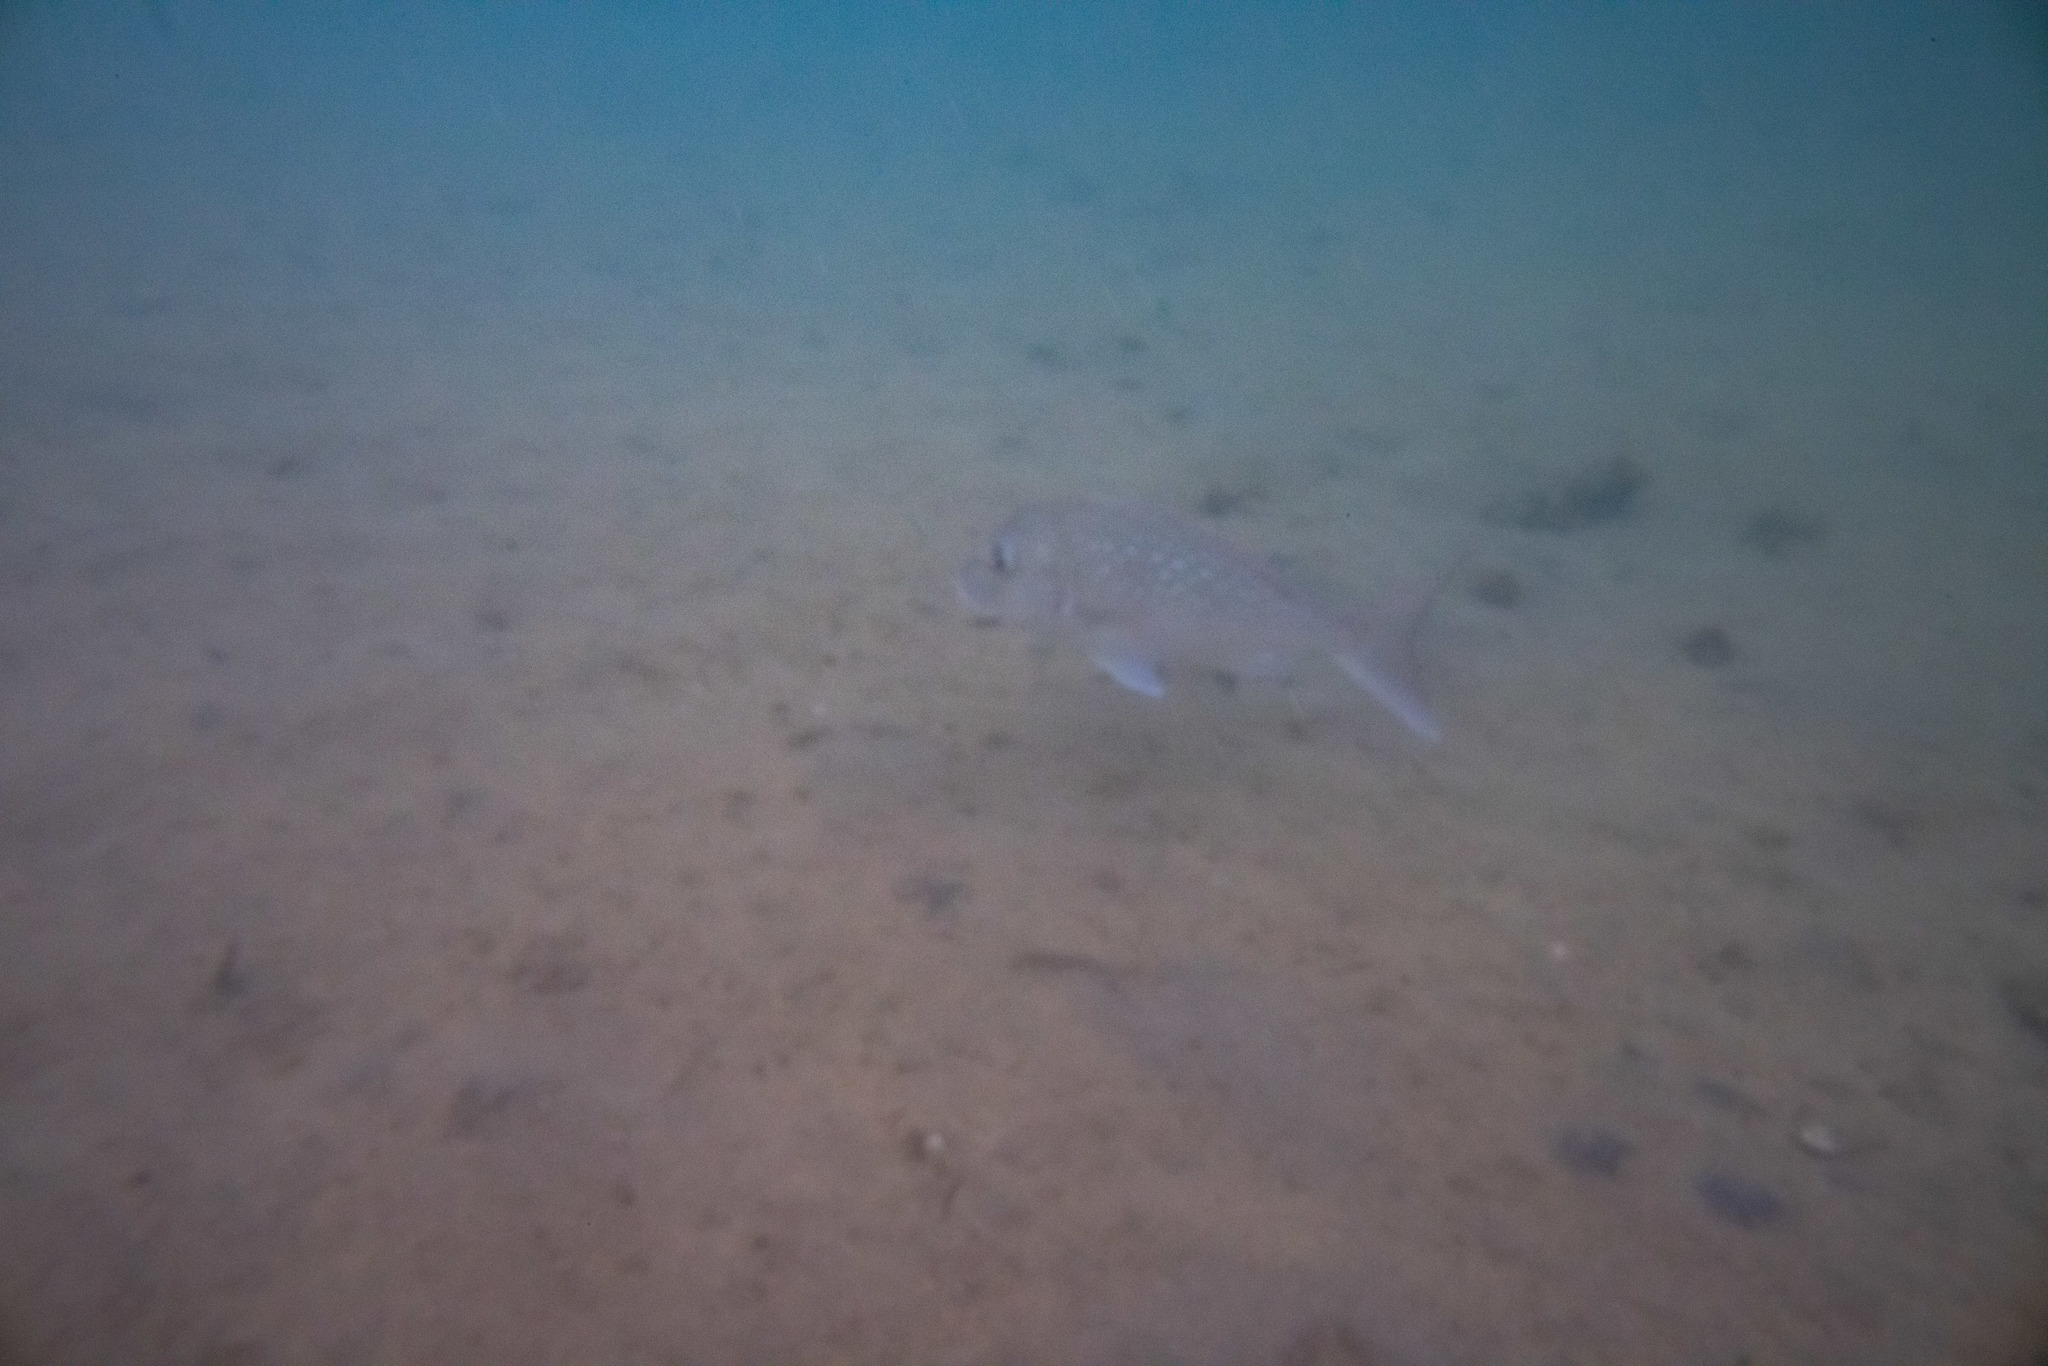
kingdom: Animalia
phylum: Chordata
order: Perciformes
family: Sparidae
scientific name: Sparidae
